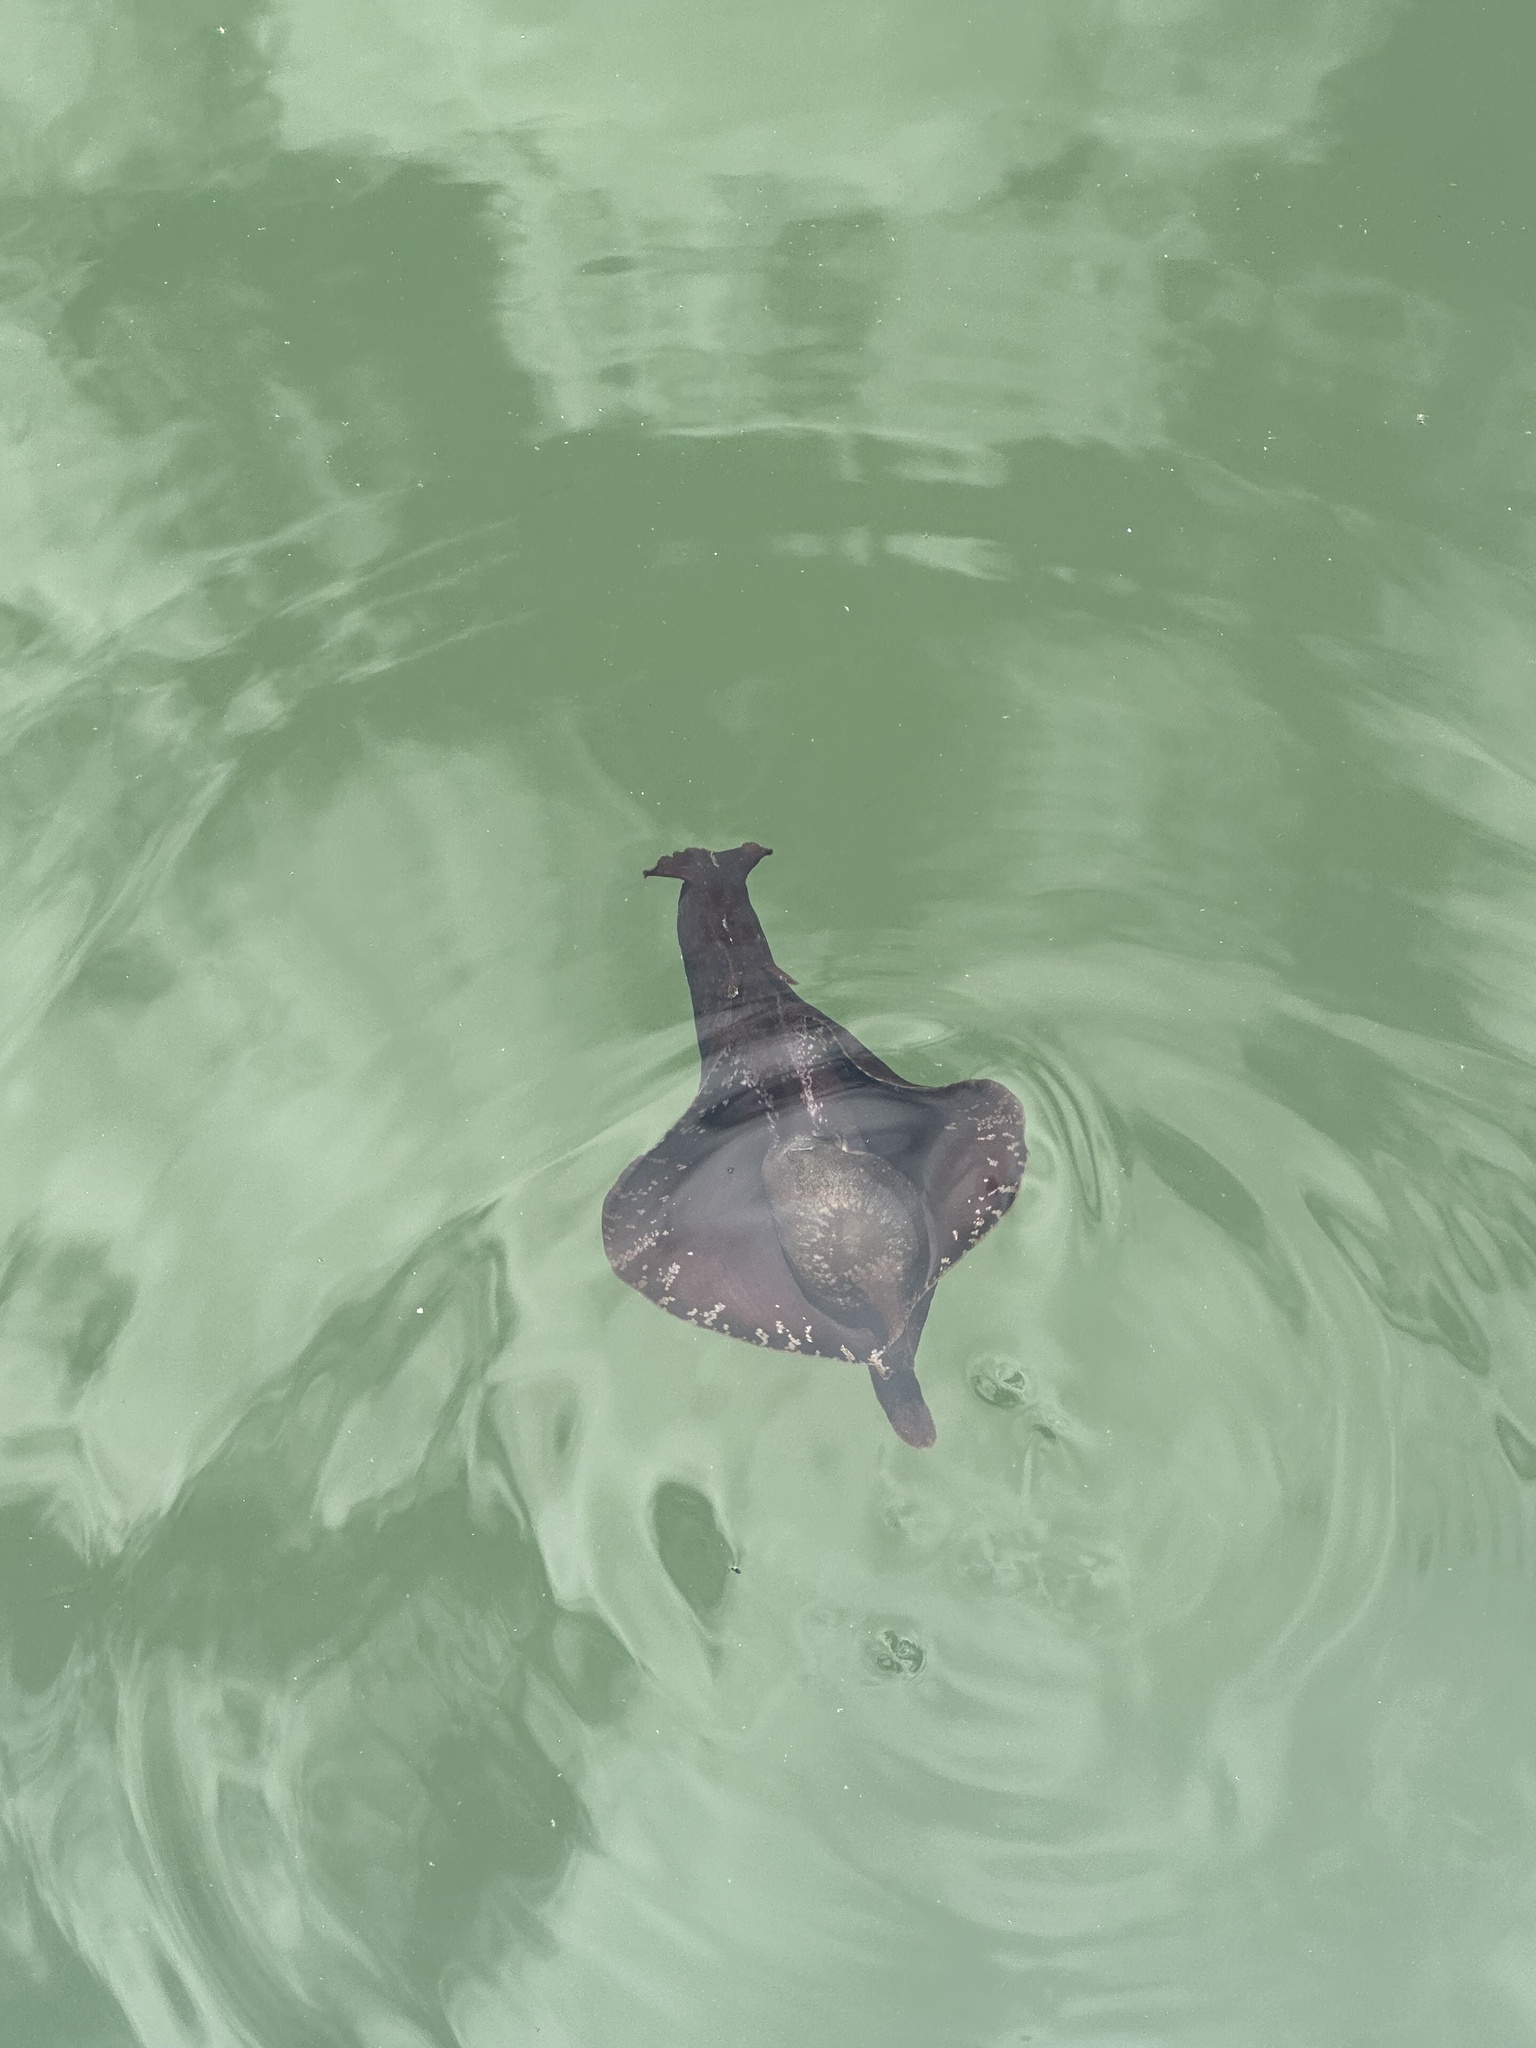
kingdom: Animalia
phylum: Mollusca
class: Gastropoda
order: Aplysiida
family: Aplysiidae
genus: Aplysia
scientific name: Aplysia brasiliana
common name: Mottled seahare
